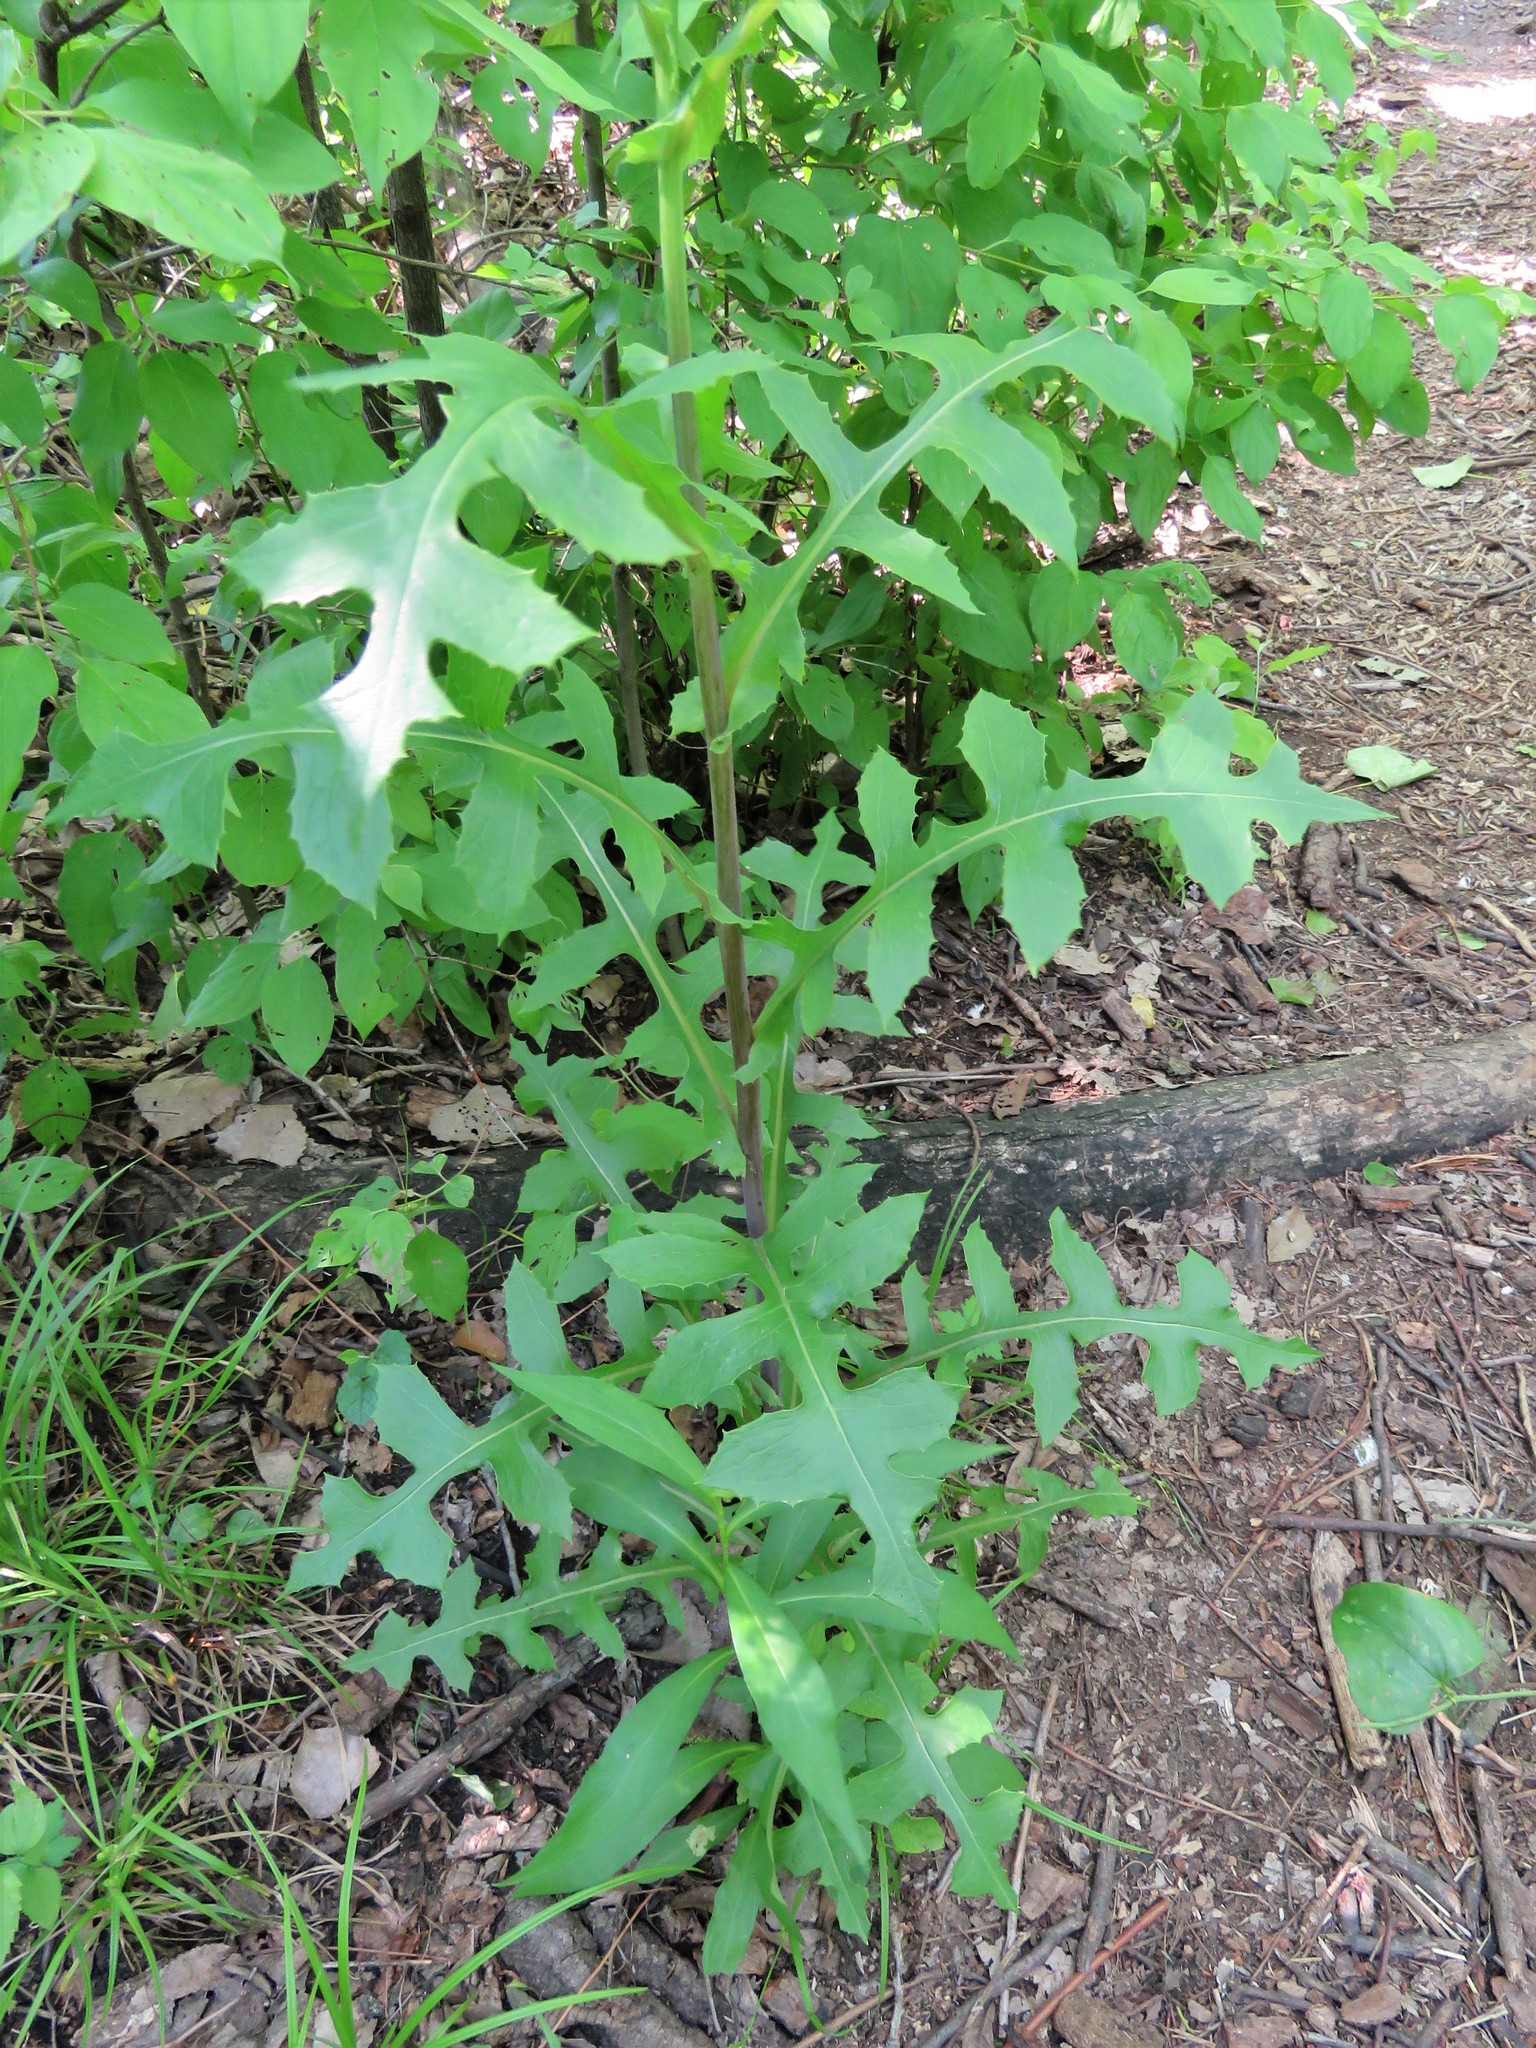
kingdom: Plantae
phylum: Tracheophyta
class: Magnoliopsida
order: Asterales
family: Asteraceae
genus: Lactuca
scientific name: Lactuca canadensis
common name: Canada lettuce
